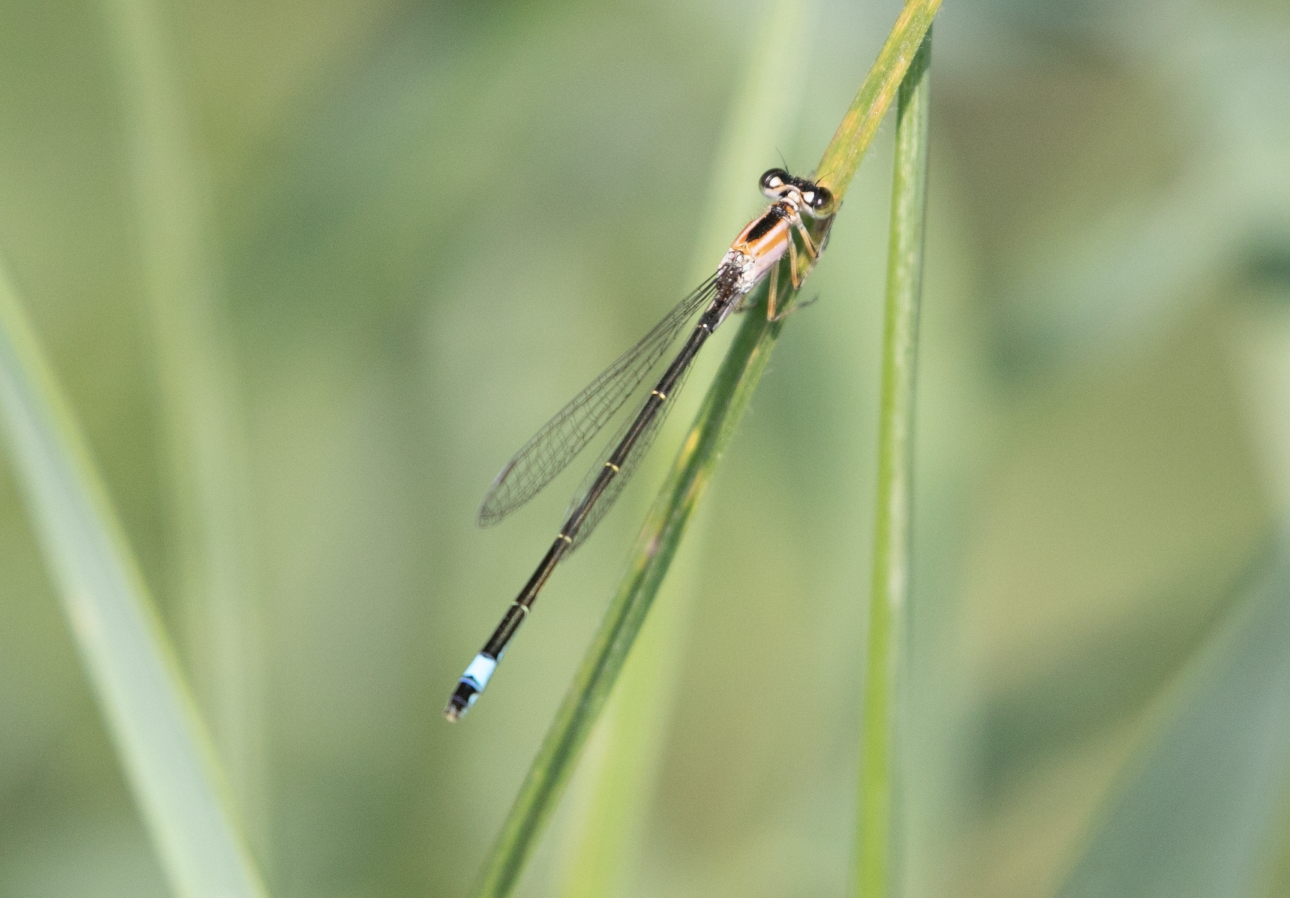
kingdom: Animalia
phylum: Arthropoda
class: Insecta
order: Odonata
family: Coenagrionidae
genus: Ischnura
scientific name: Ischnura elegans
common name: Blue-tailed damselfly
